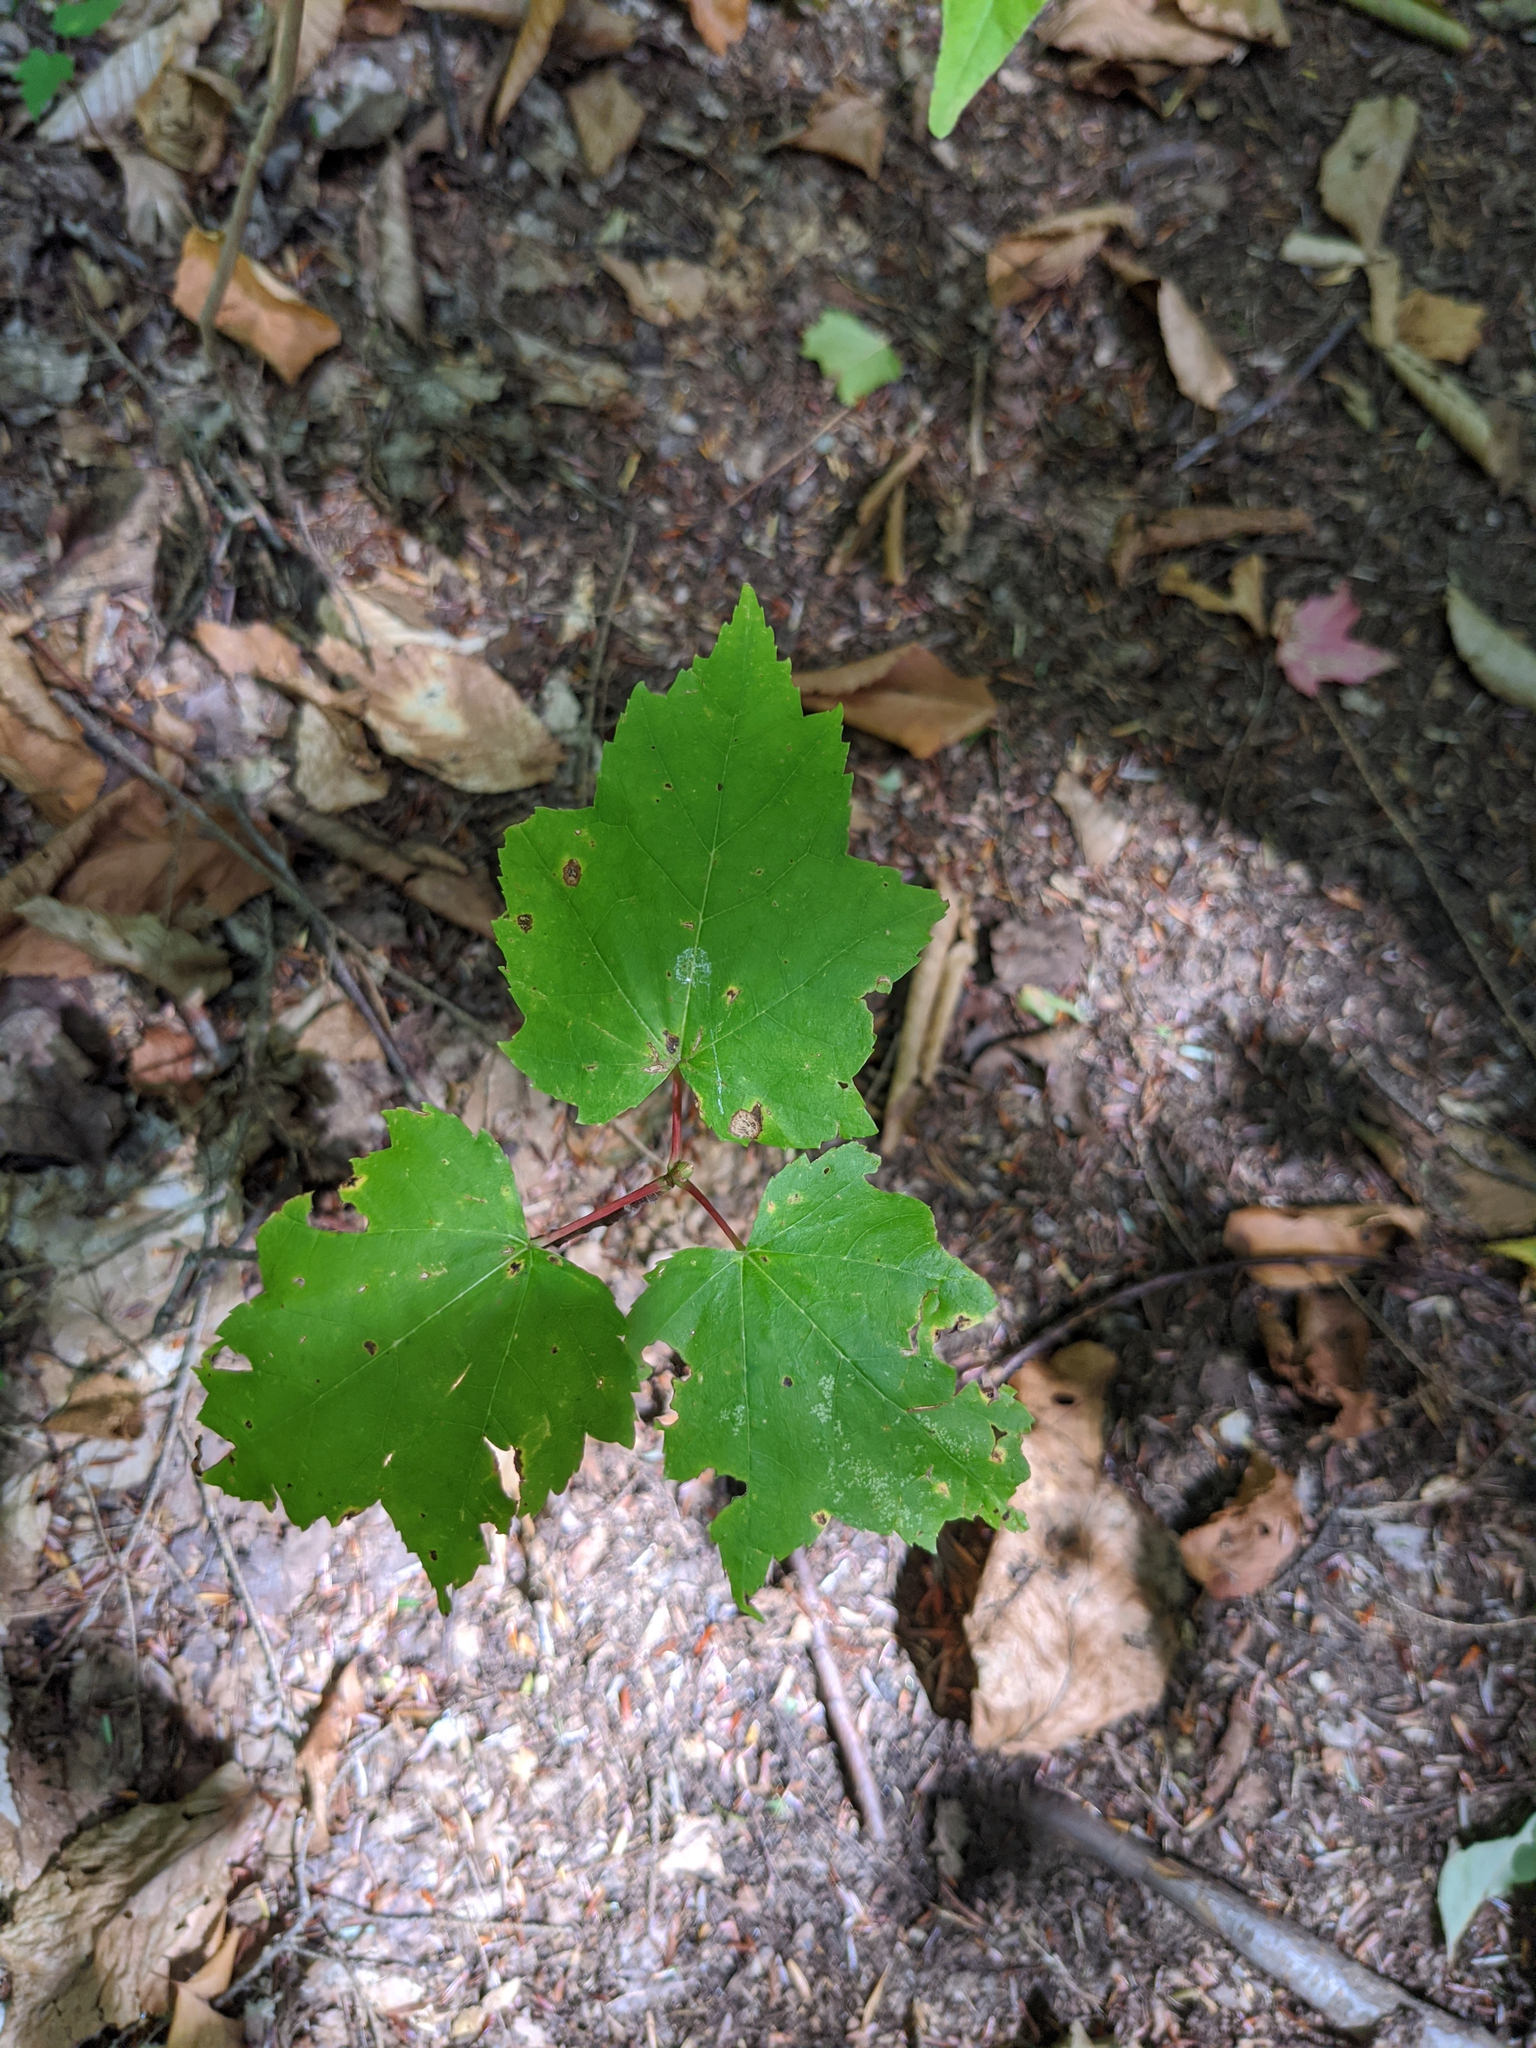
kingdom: Plantae
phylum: Tracheophyta
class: Magnoliopsida
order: Sapindales
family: Sapindaceae
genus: Acer
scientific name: Acer rubrum
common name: Red maple
